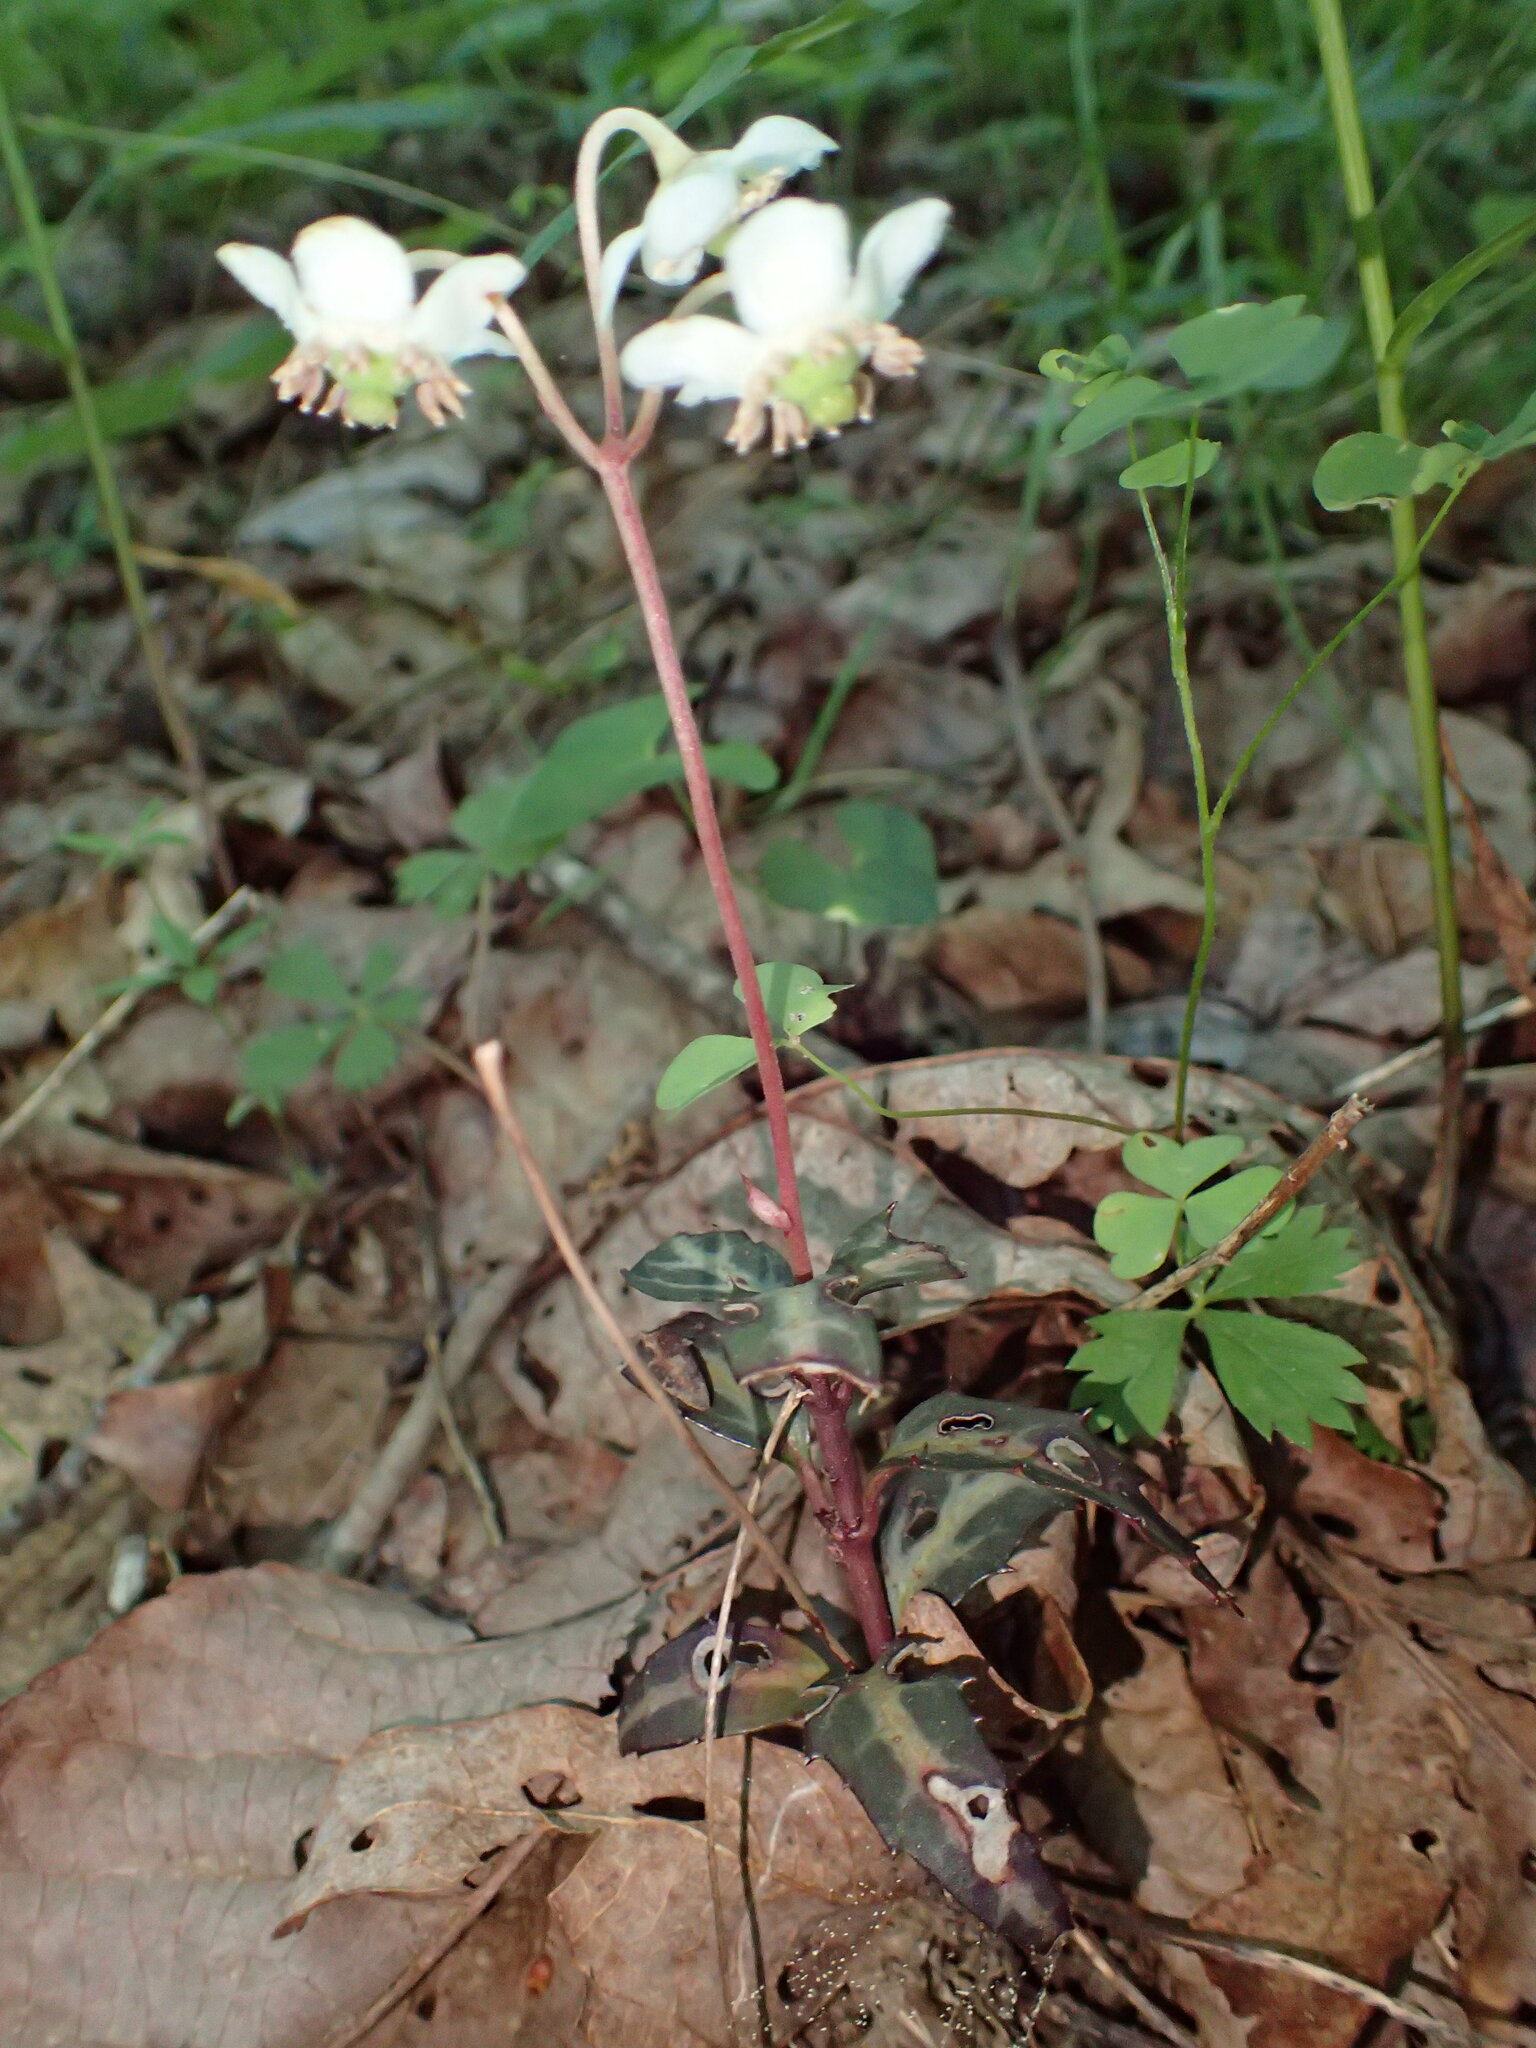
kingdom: Plantae
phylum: Tracheophyta
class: Magnoliopsida
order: Ericales
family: Ericaceae
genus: Chimaphila
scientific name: Chimaphila maculata
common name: Spotted pipsissewa
